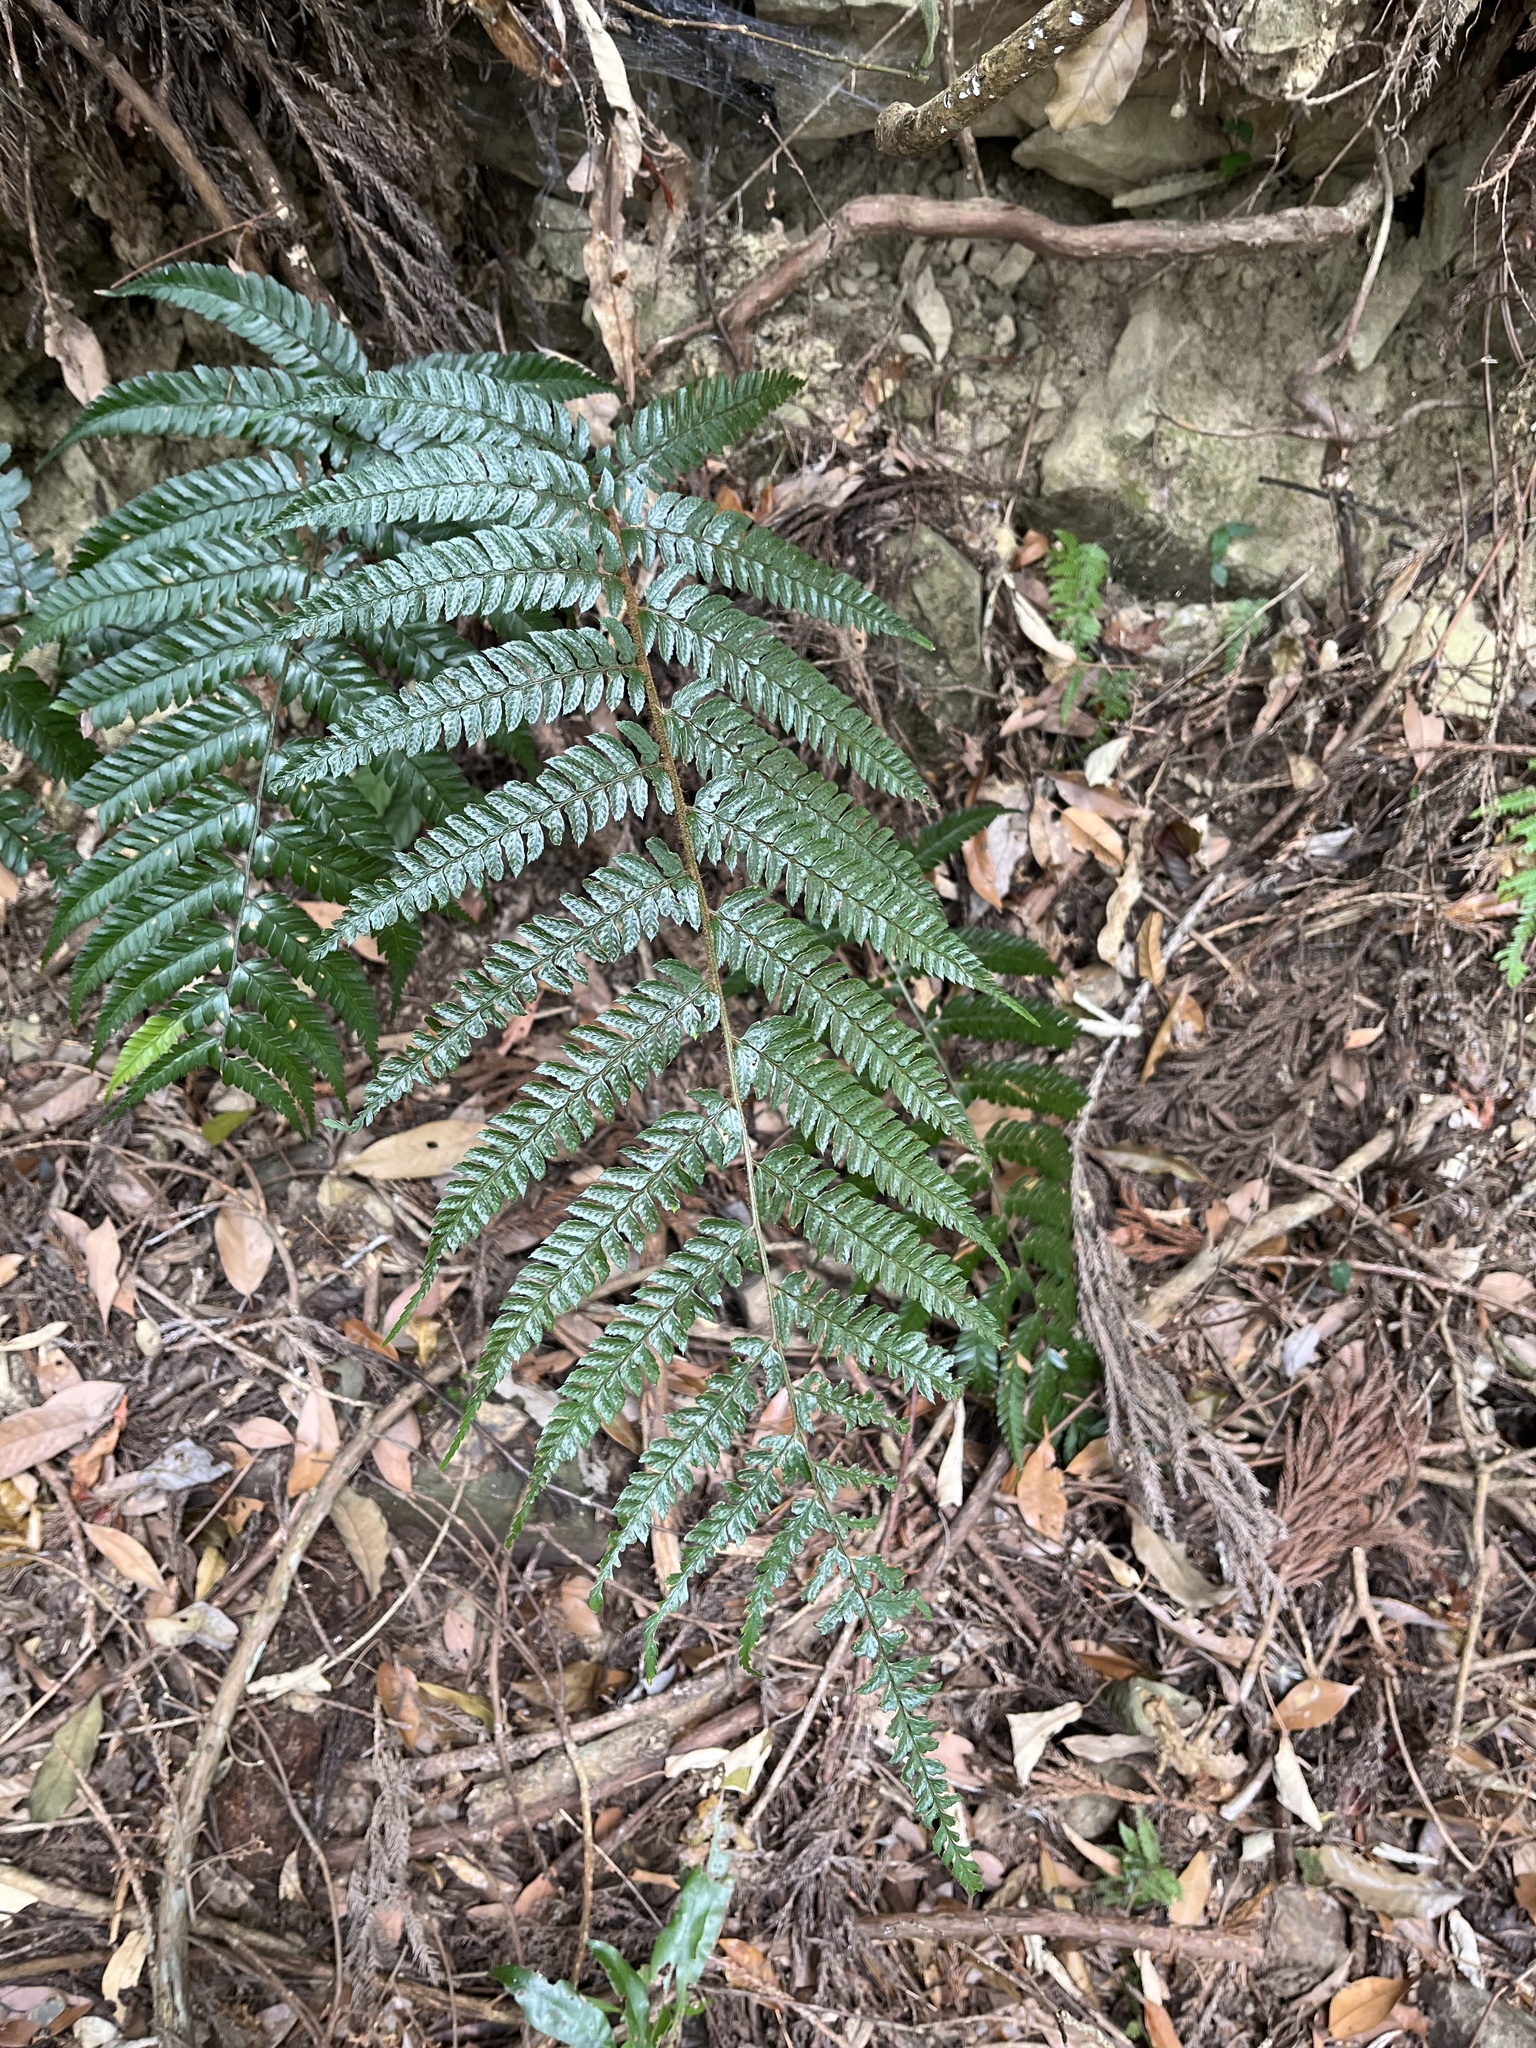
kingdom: Plantae
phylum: Tracheophyta
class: Polypodiopsida
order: Polypodiales
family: Dryopteridaceae
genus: Polystichum
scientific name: Polystichum parvipinnulum
